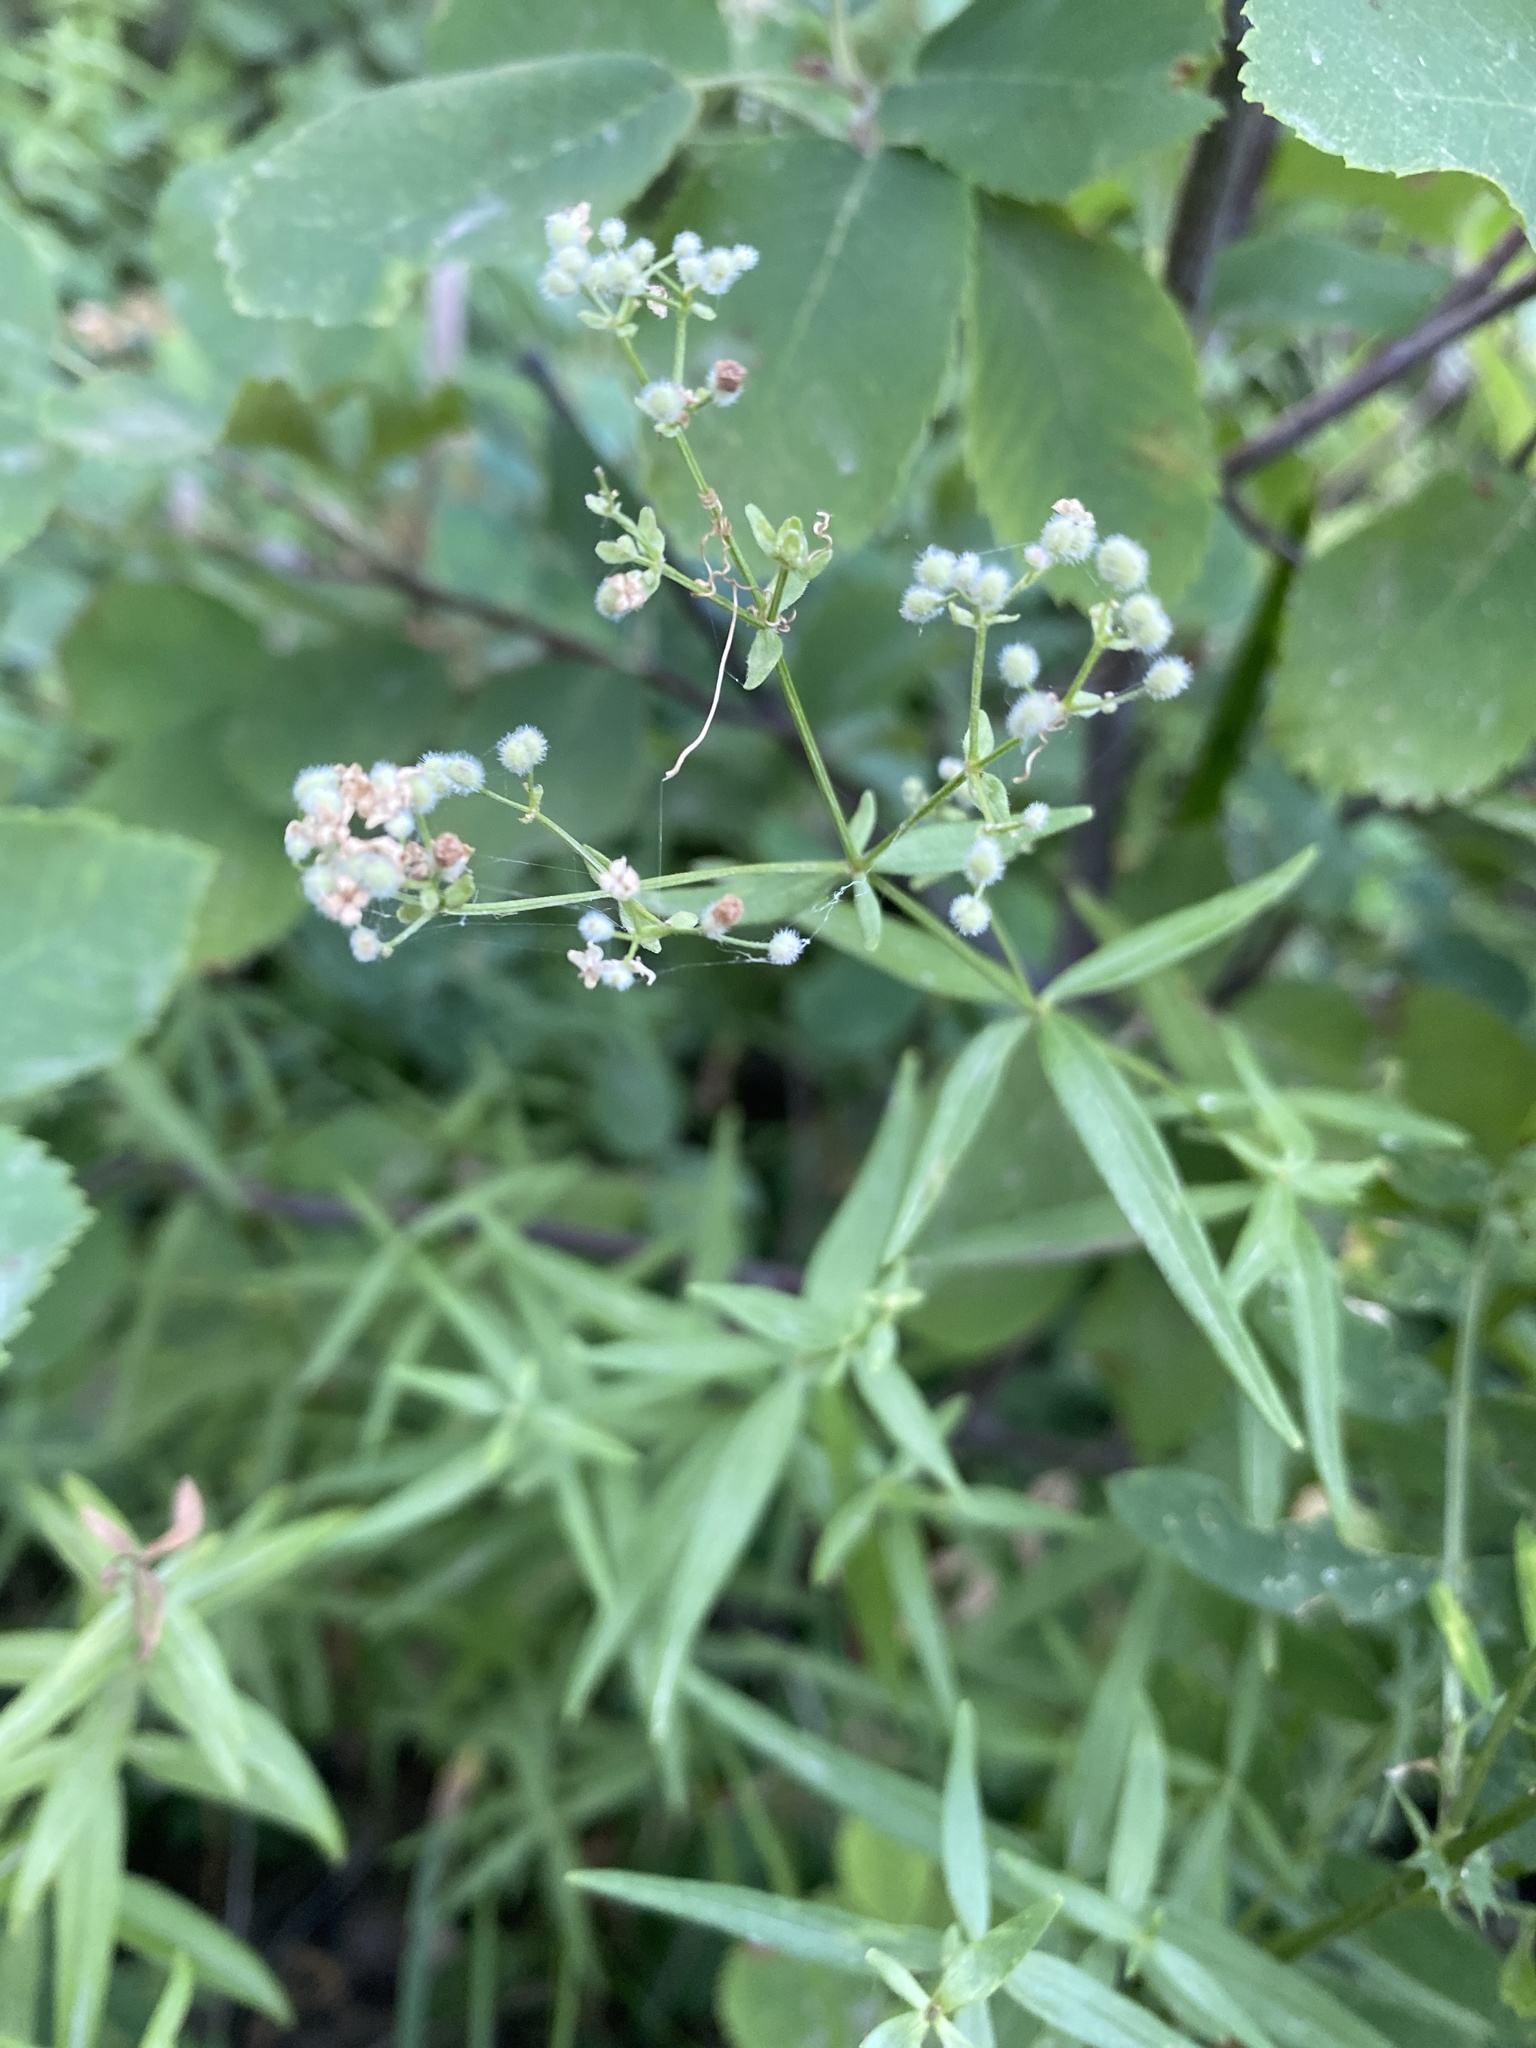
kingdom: Plantae
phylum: Tracheophyta
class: Magnoliopsida
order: Gentianales
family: Rubiaceae
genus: Galium
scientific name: Galium boreale
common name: Northern bedstraw
